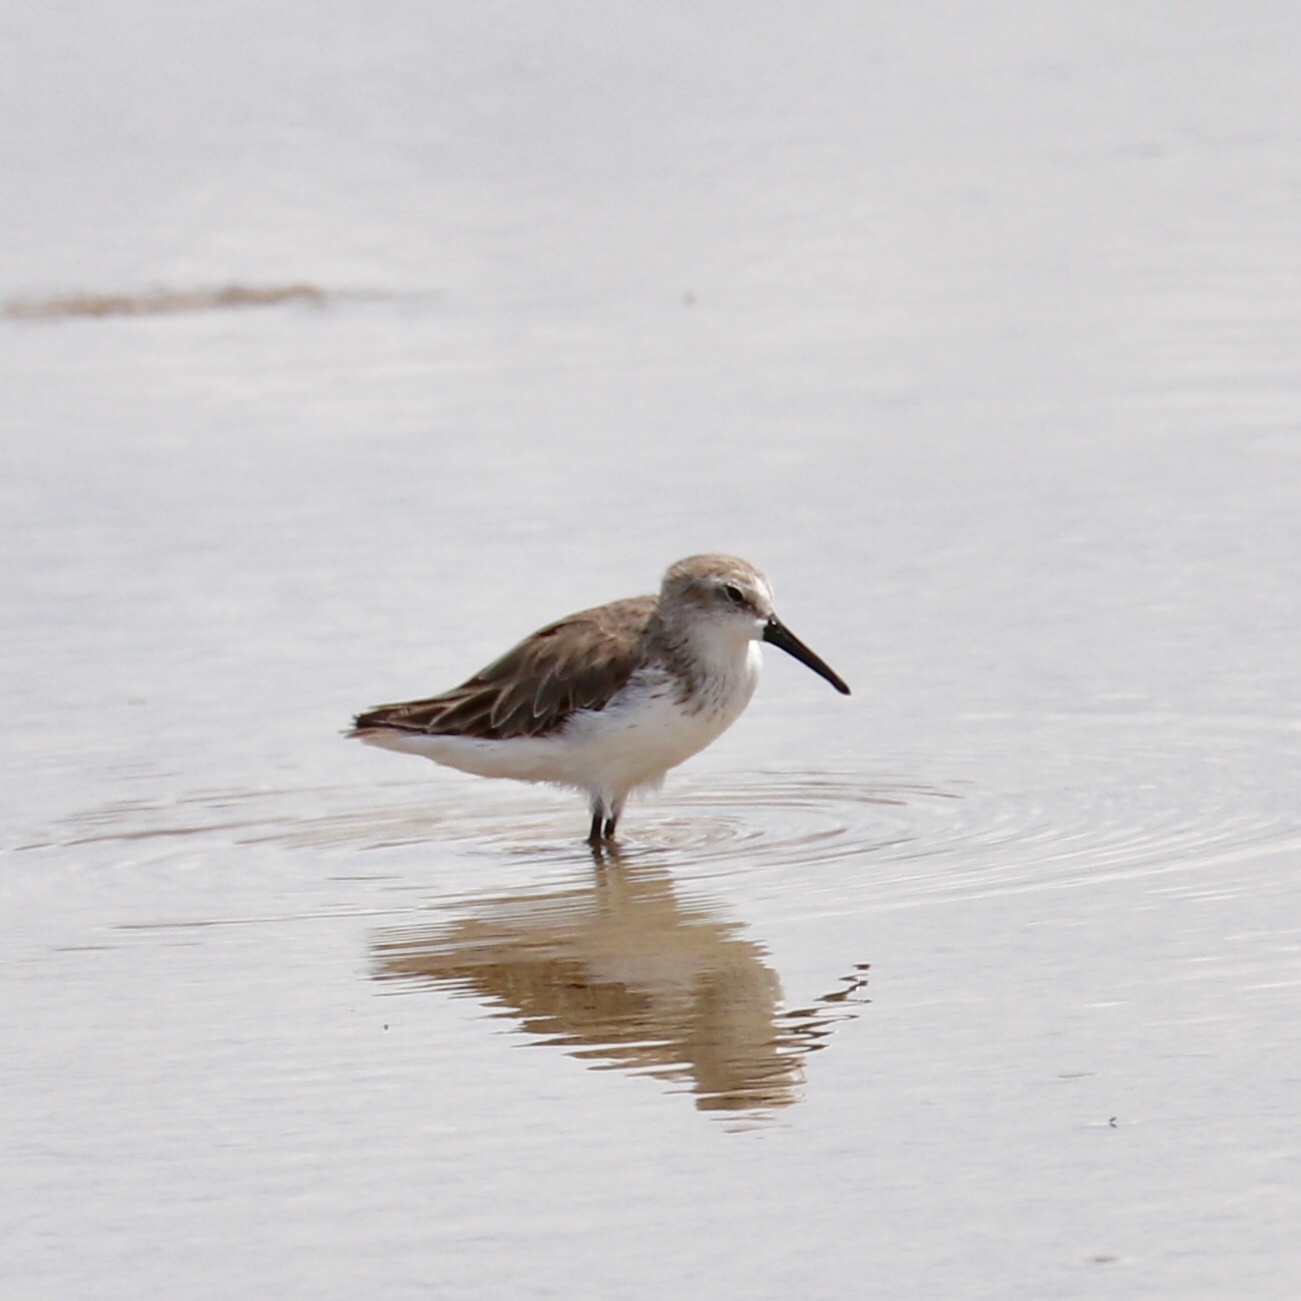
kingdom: Animalia
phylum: Chordata
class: Aves
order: Charadriiformes
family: Scolopacidae
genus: Calidris
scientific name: Calidris mauri
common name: Western sandpiper
